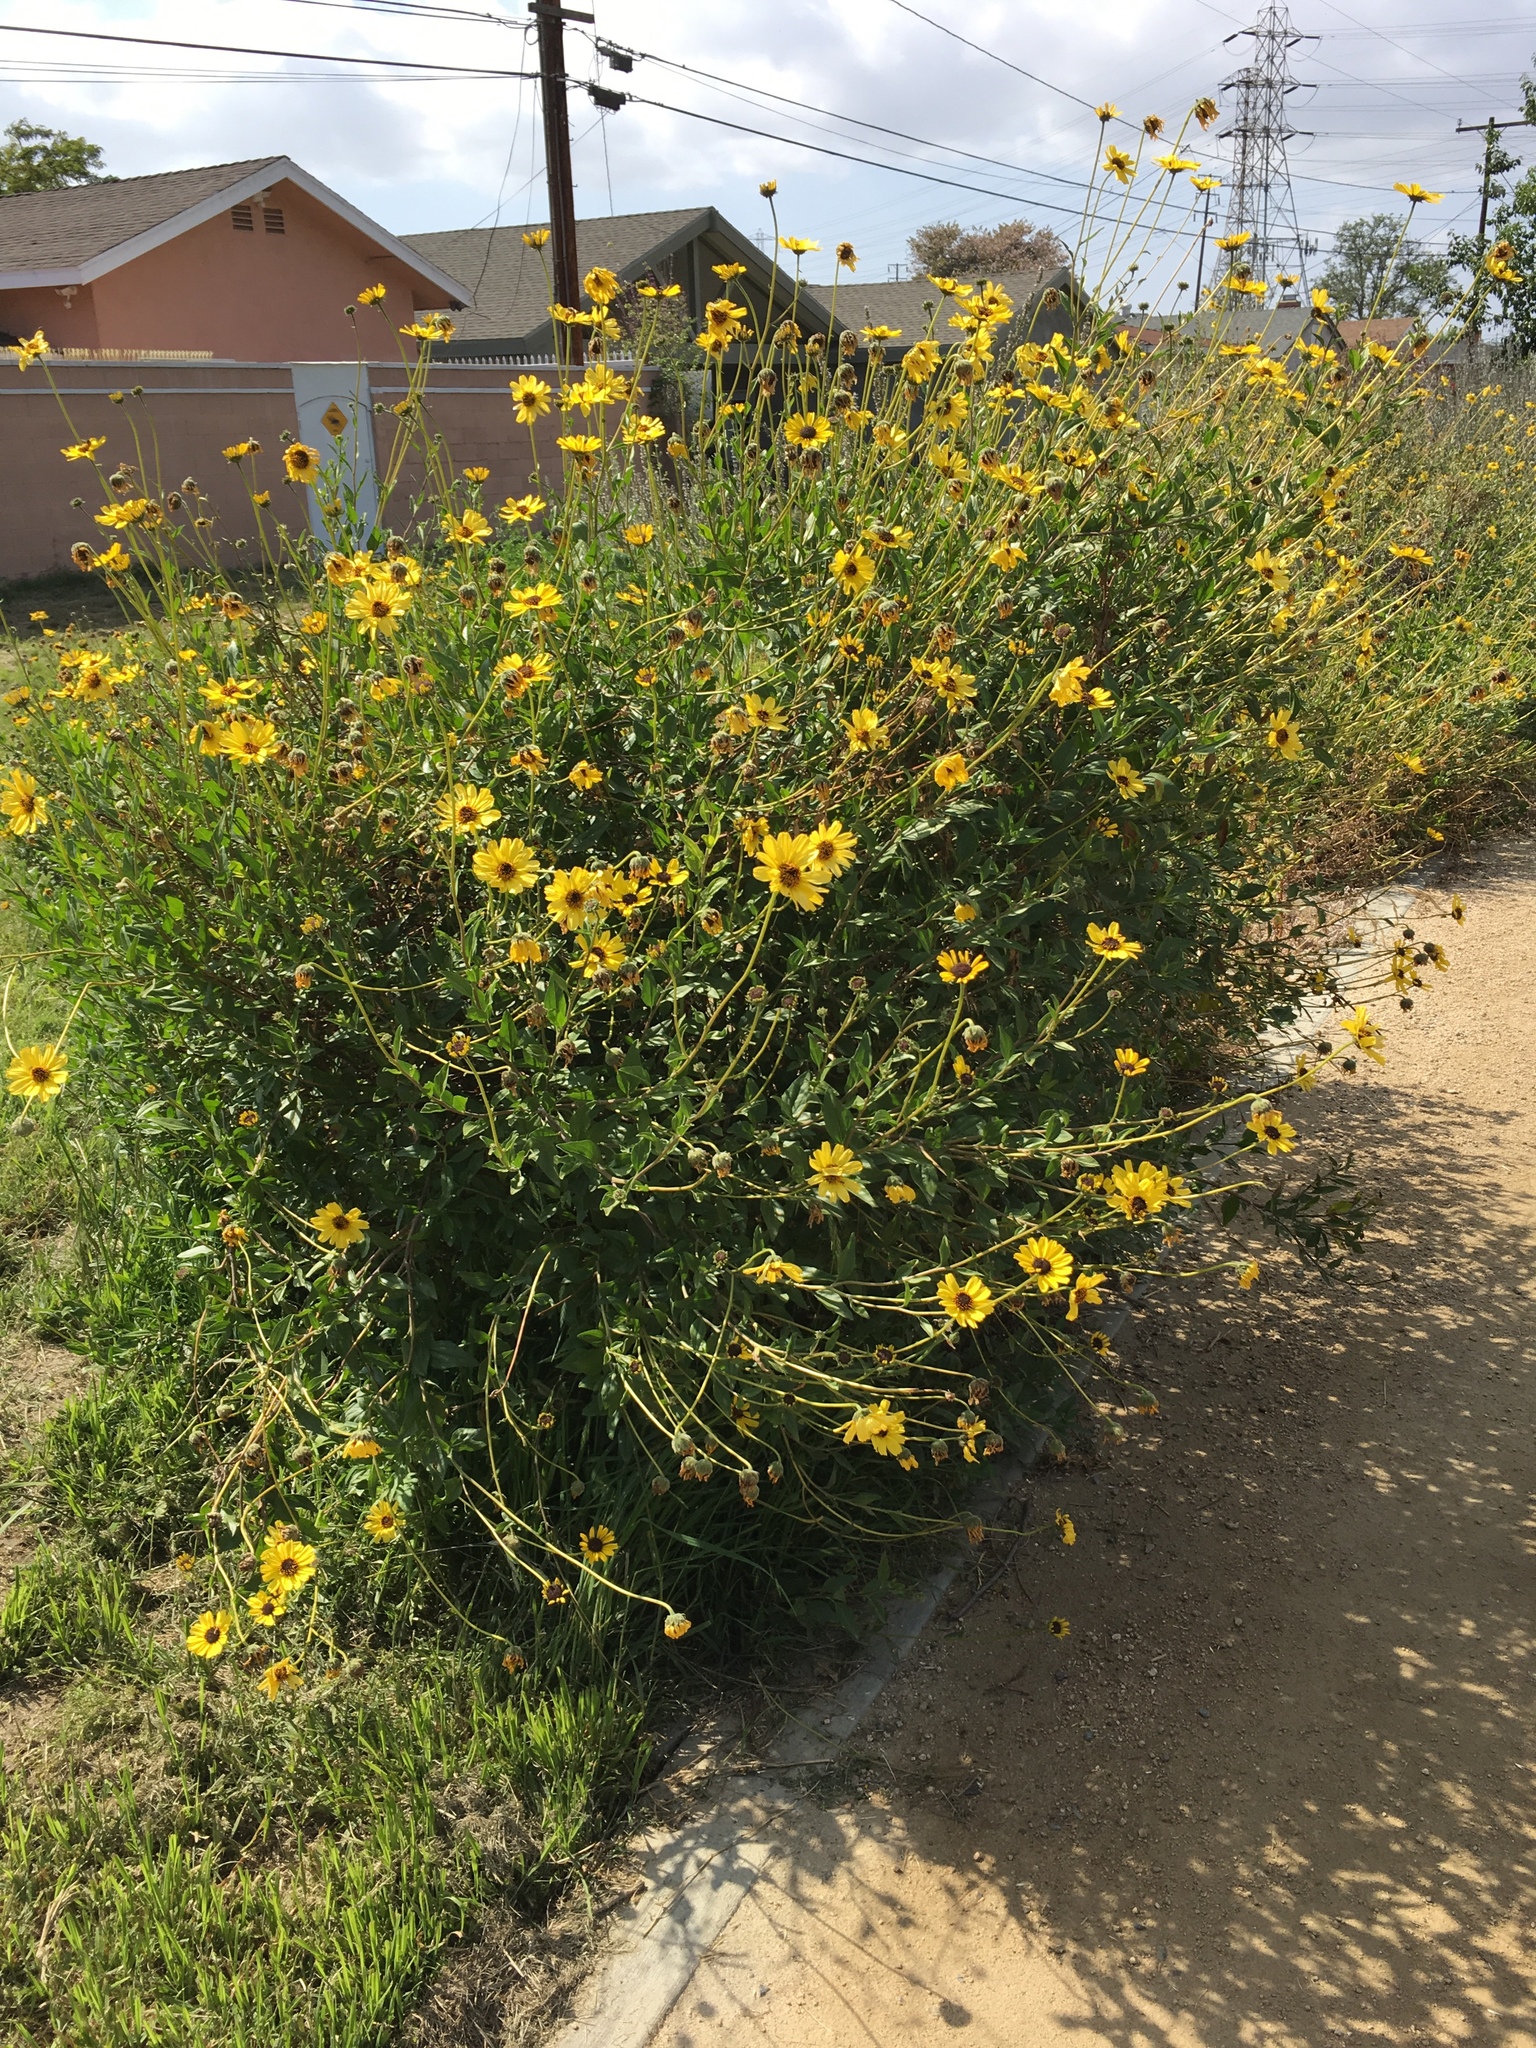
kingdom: Plantae
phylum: Tracheophyta
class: Magnoliopsida
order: Asterales
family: Asteraceae
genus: Encelia
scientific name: Encelia californica
